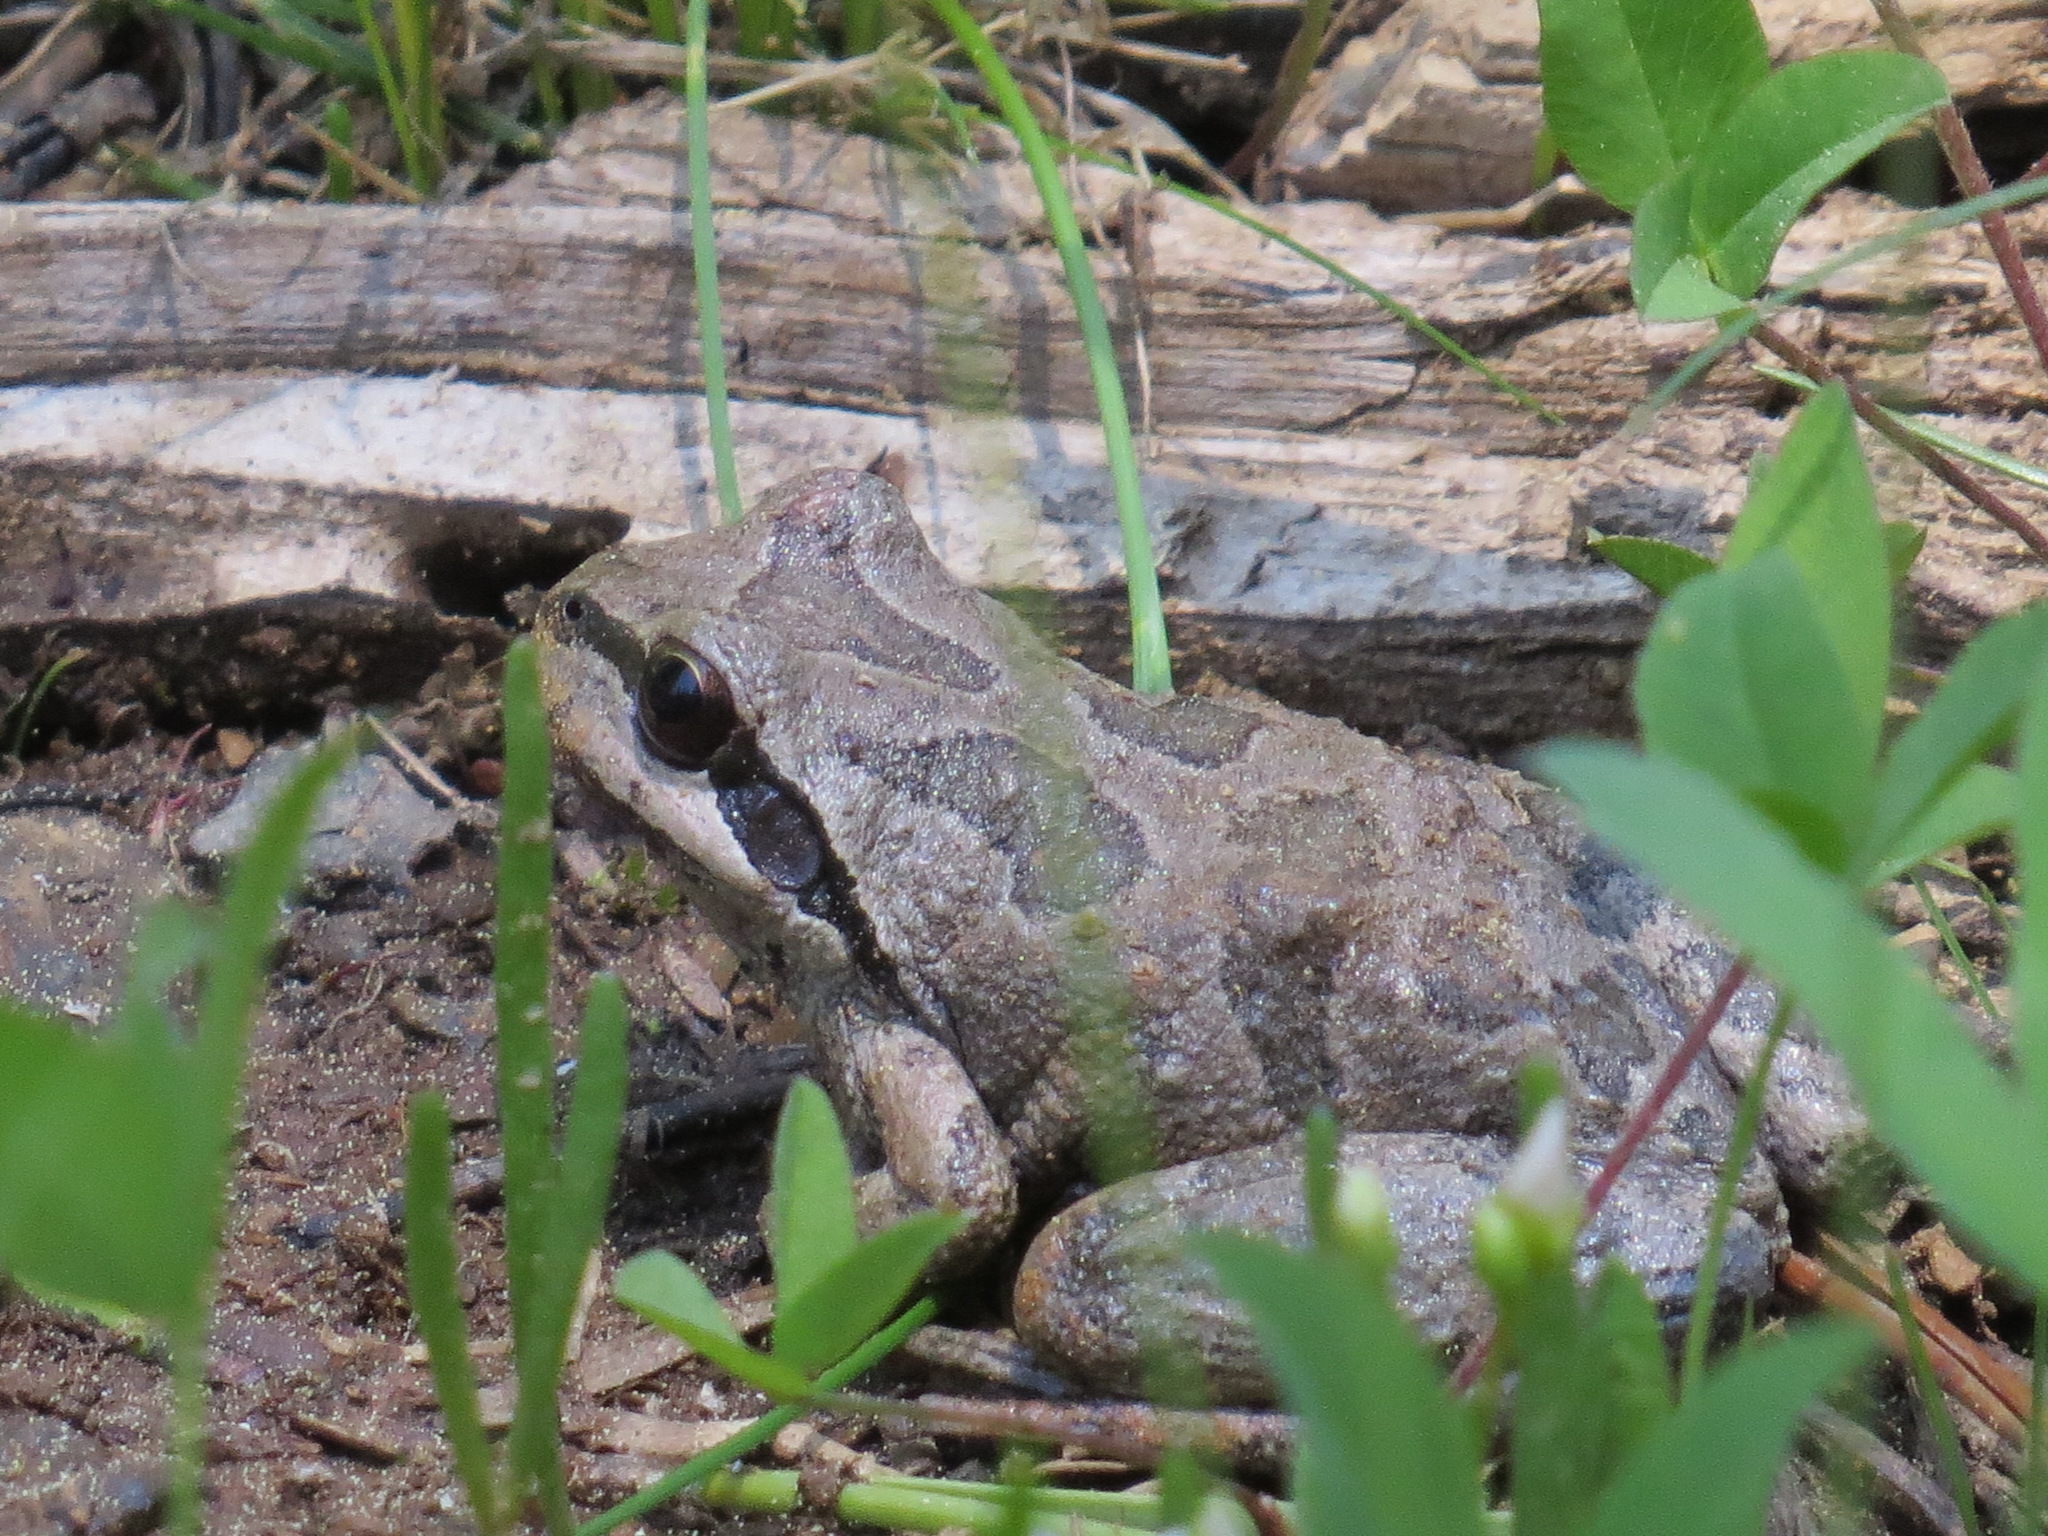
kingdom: Animalia
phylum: Chordata
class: Amphibia
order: Anura
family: Hylidae
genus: Pseudacris
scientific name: Pseudacris regilla
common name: Pacific chorus frog
